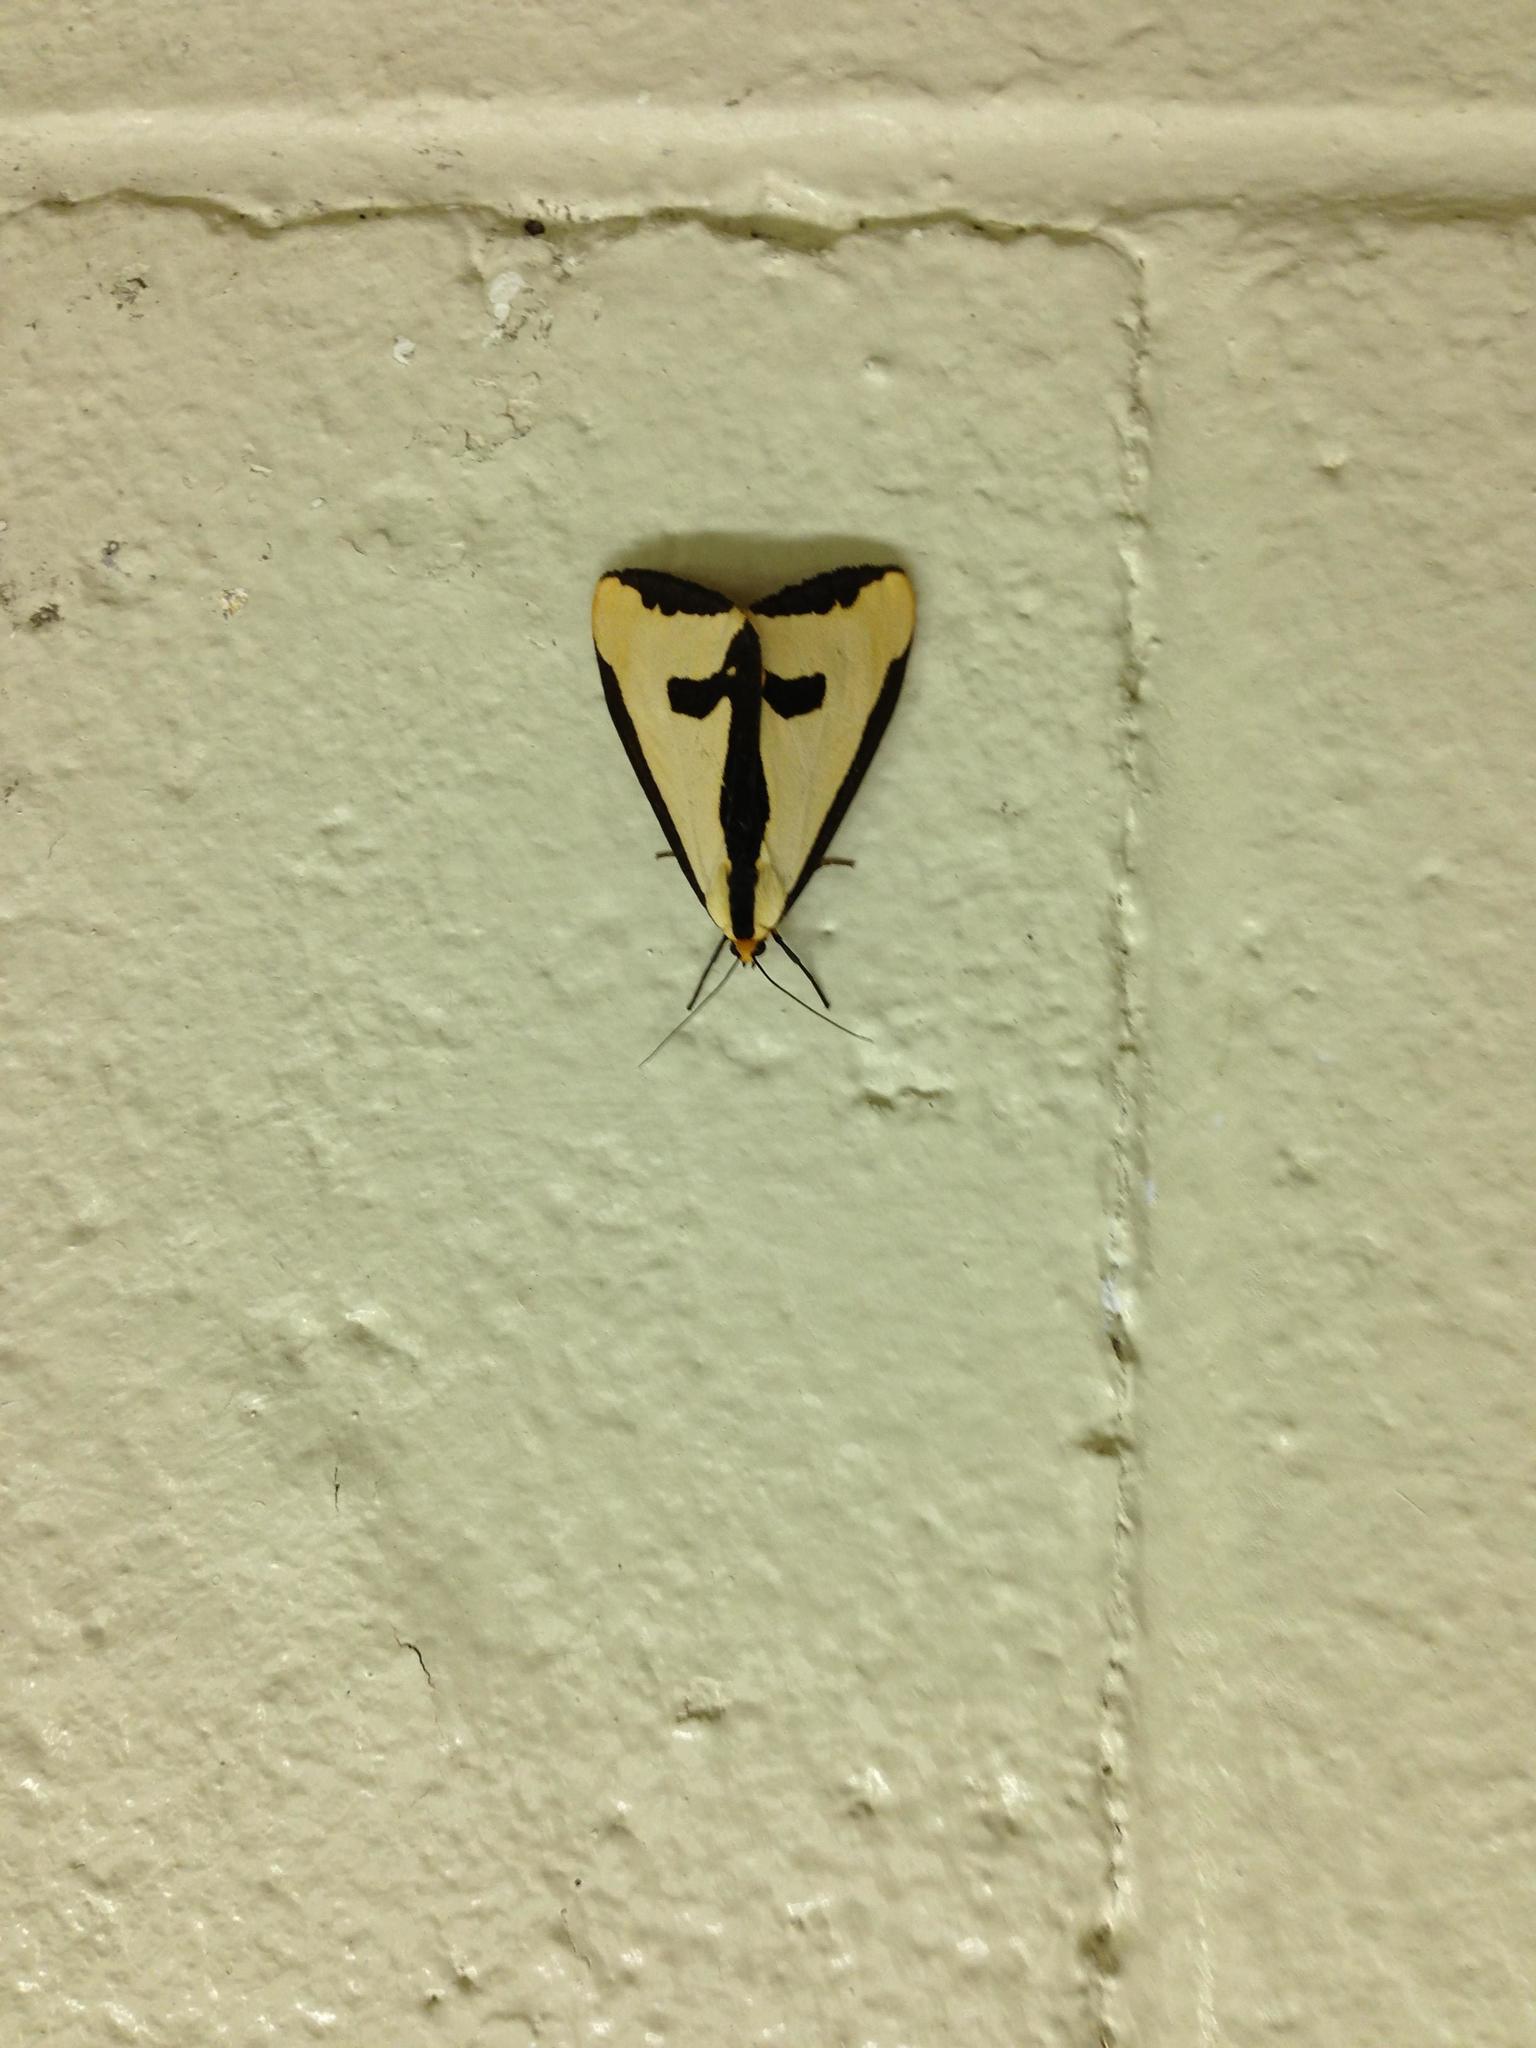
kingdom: Animalia
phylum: Arthropoda
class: Insecta
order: Lepidoptera
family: Erebidae
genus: Haploa
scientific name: Haploa clymene
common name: Clymene moth
